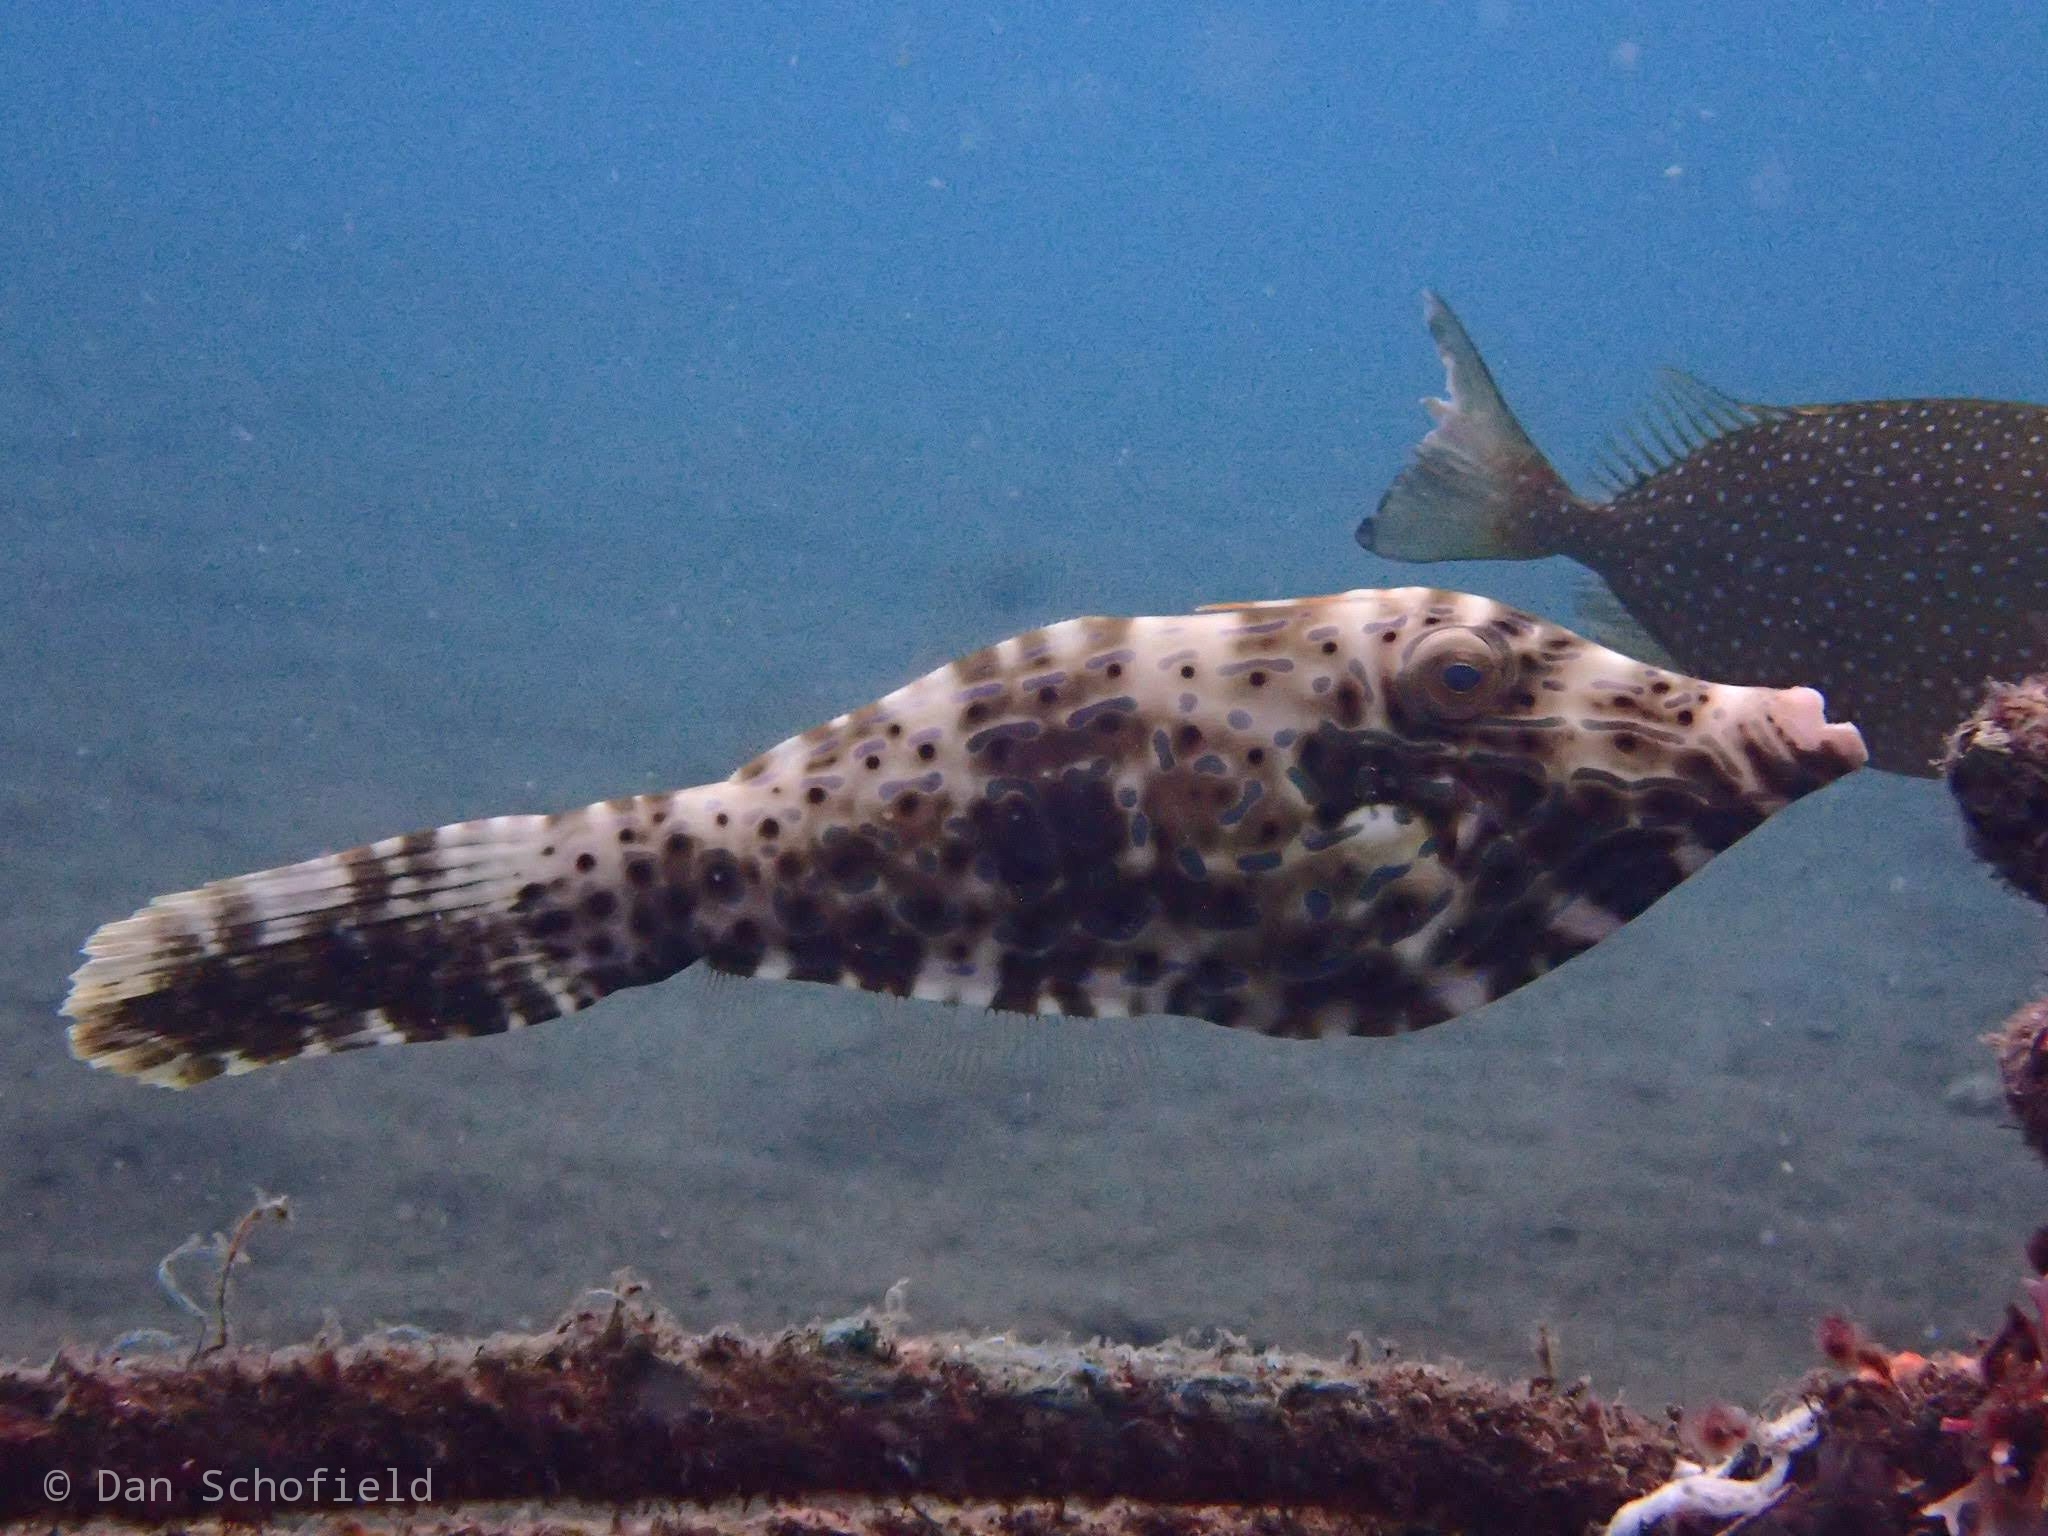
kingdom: Animalia
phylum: Chordata
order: Tetraodontiformes
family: Monacanthidae
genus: Aluterus
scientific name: Aluterus scriptus
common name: Scribbled leatherjacket filefish
